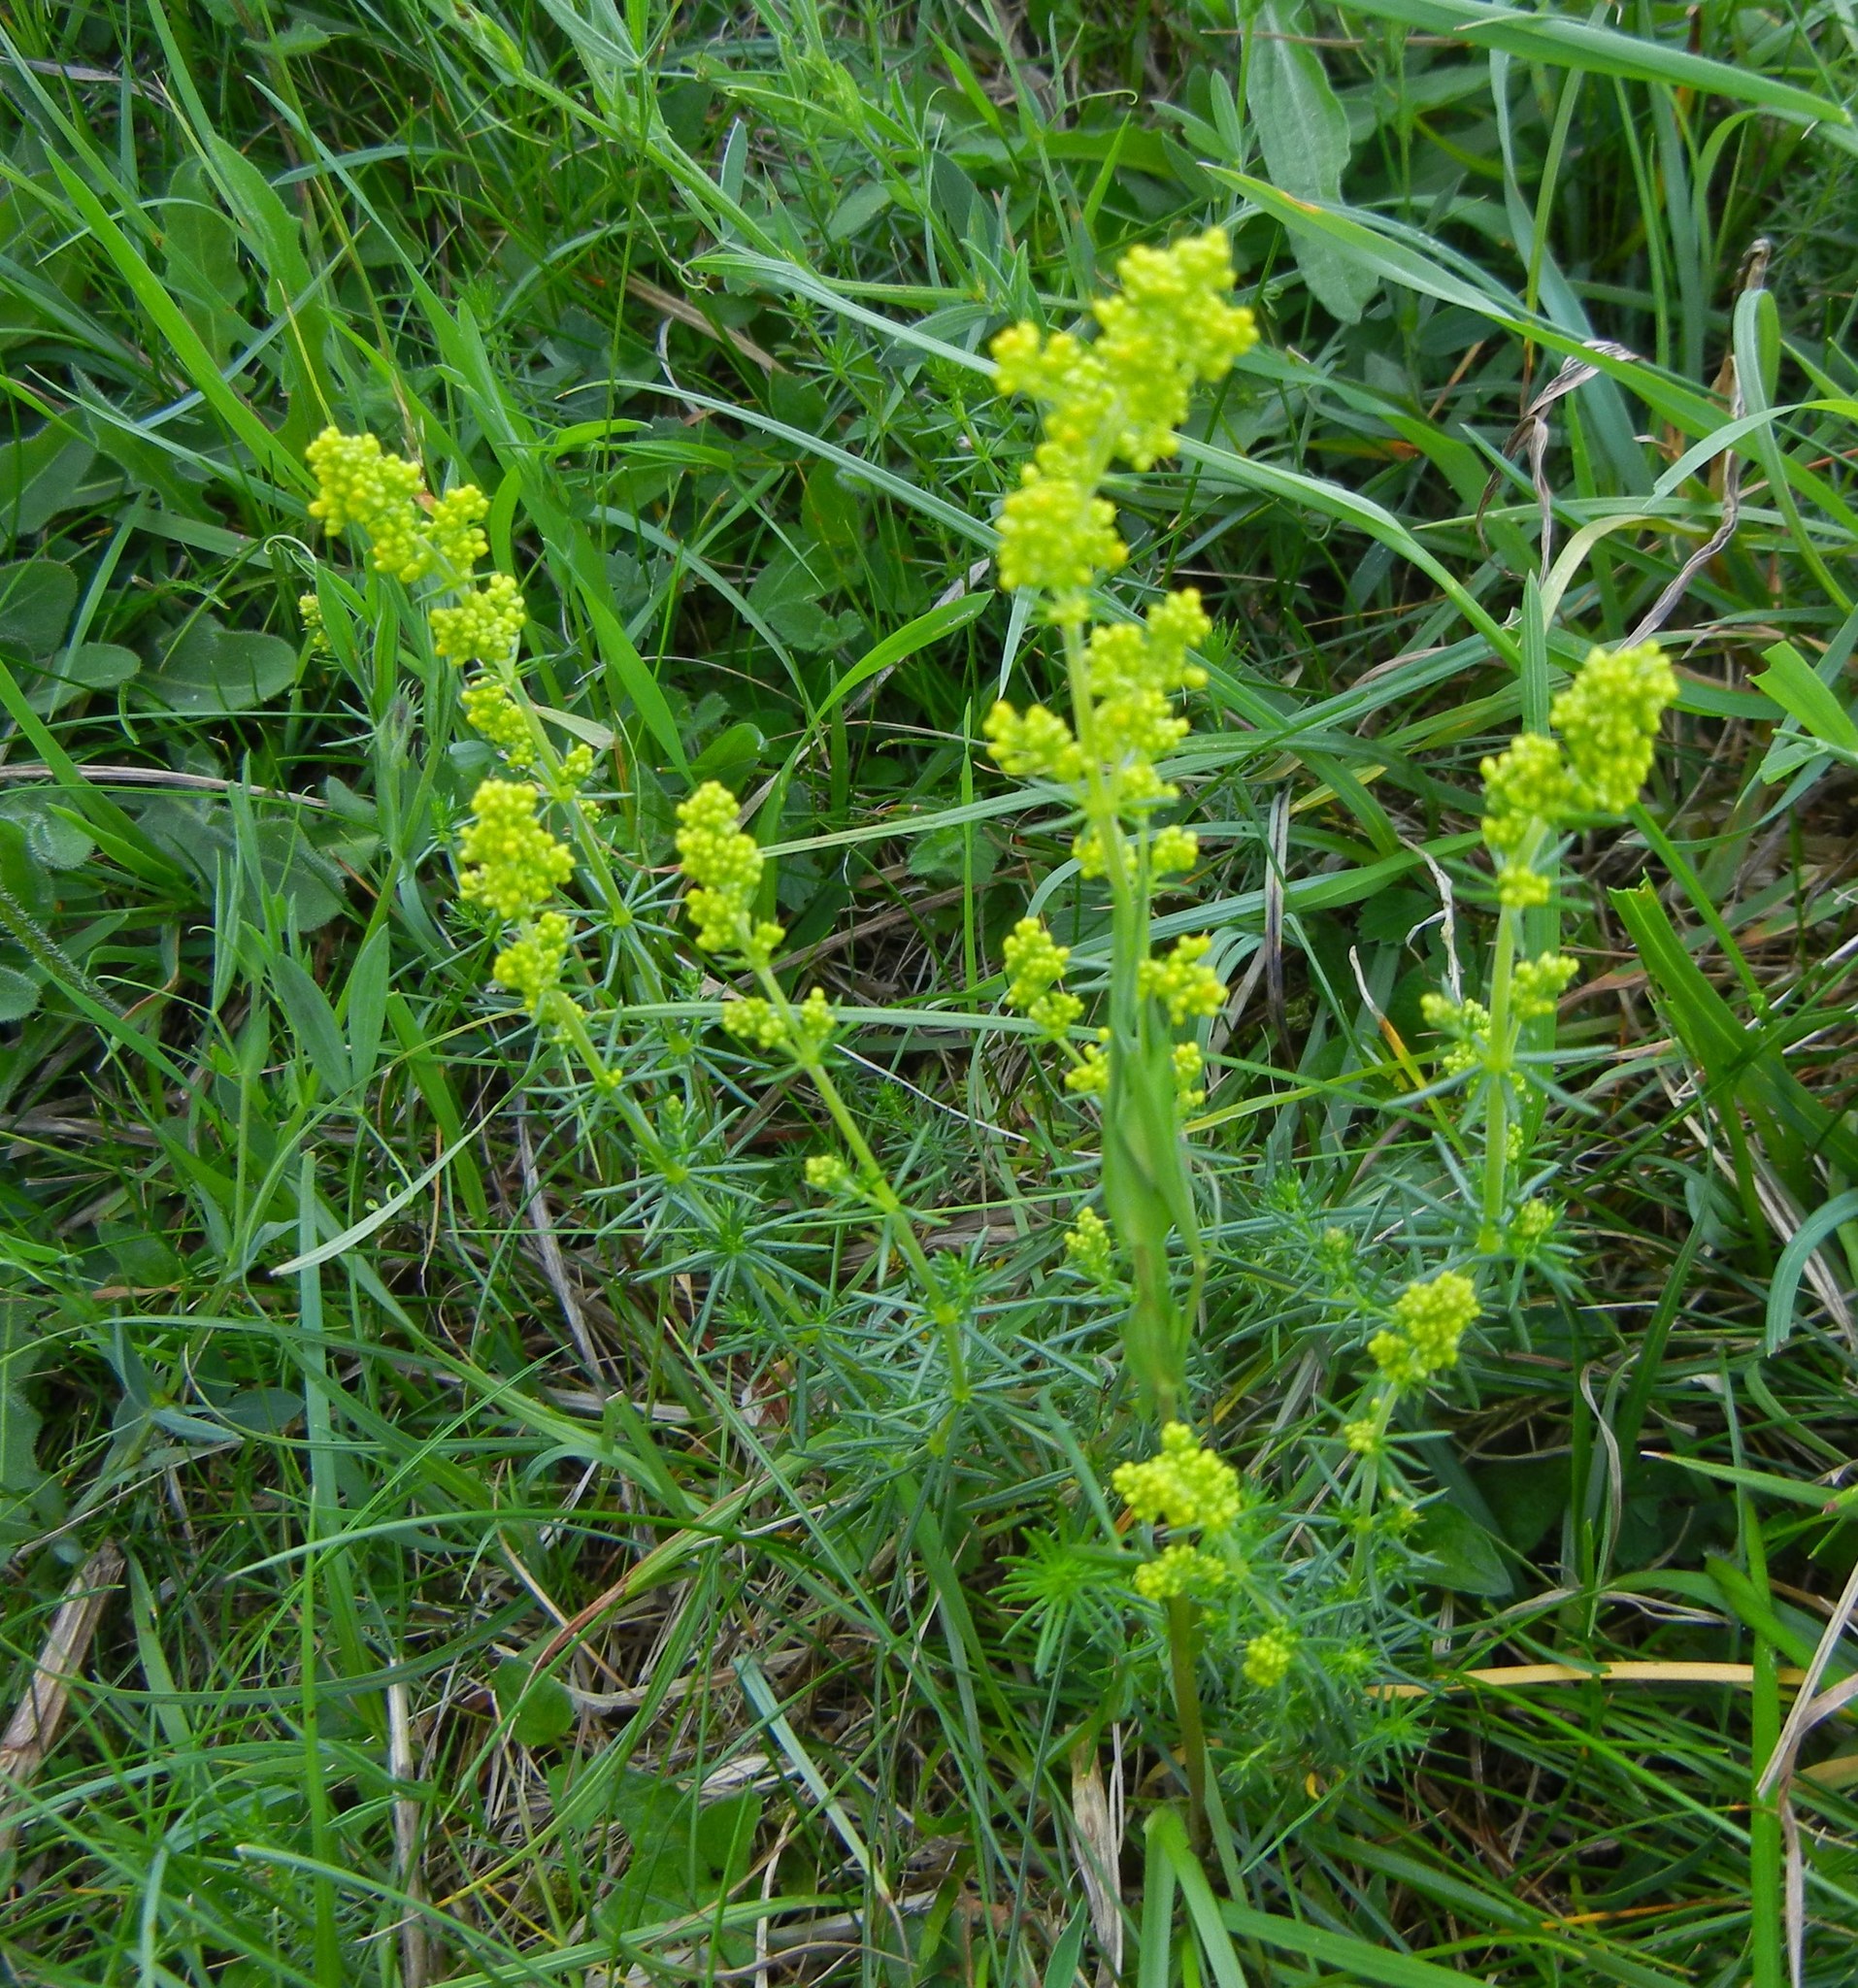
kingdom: Plantae
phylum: Tracheophyta
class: Magnoliopsida
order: Gentianales
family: Rubiaceae
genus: Galium
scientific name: Galium verum
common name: Lady's bedstraw
